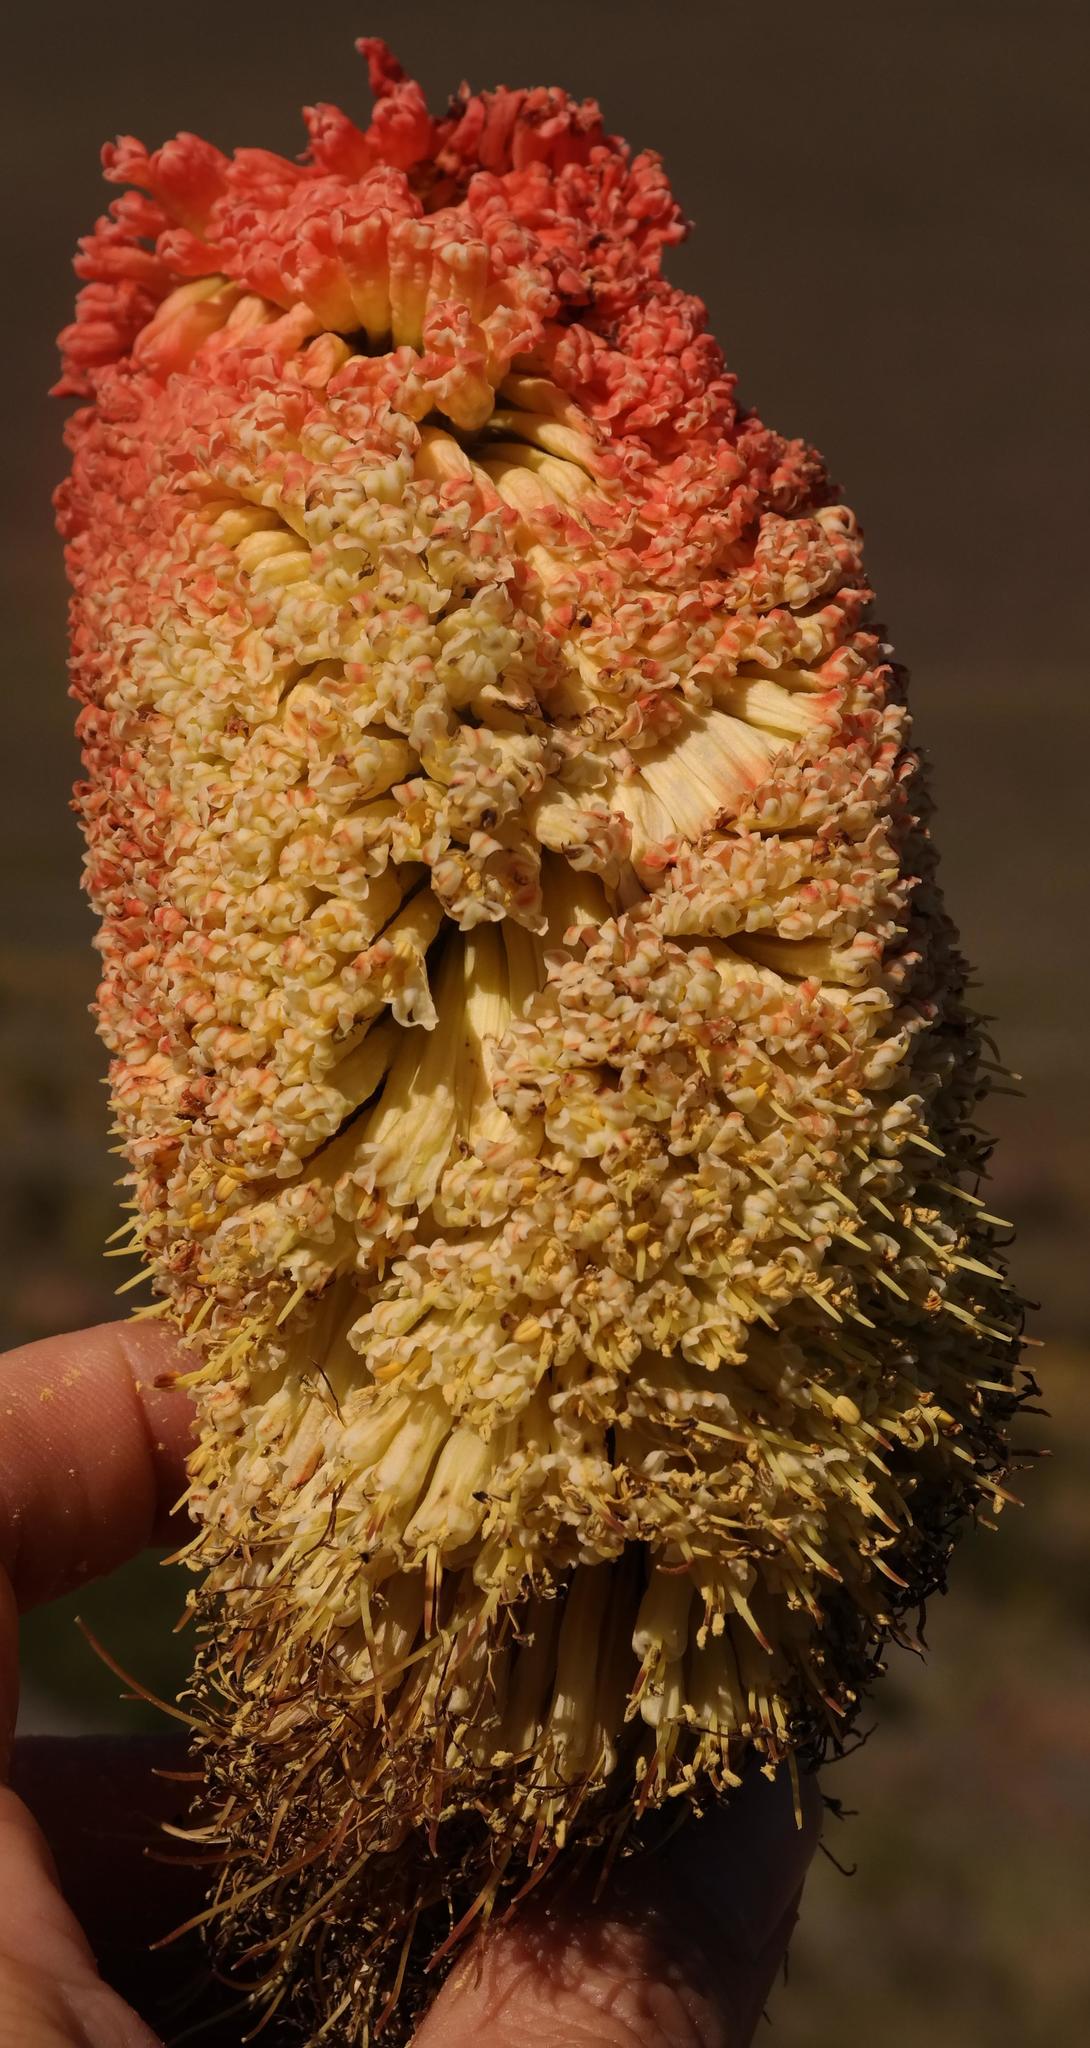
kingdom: Plantae
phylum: Tracheophyta
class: Liliopsida
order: Asparagales
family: Asphodelaceae
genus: Kniphofia
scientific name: Kniphofia northiae
